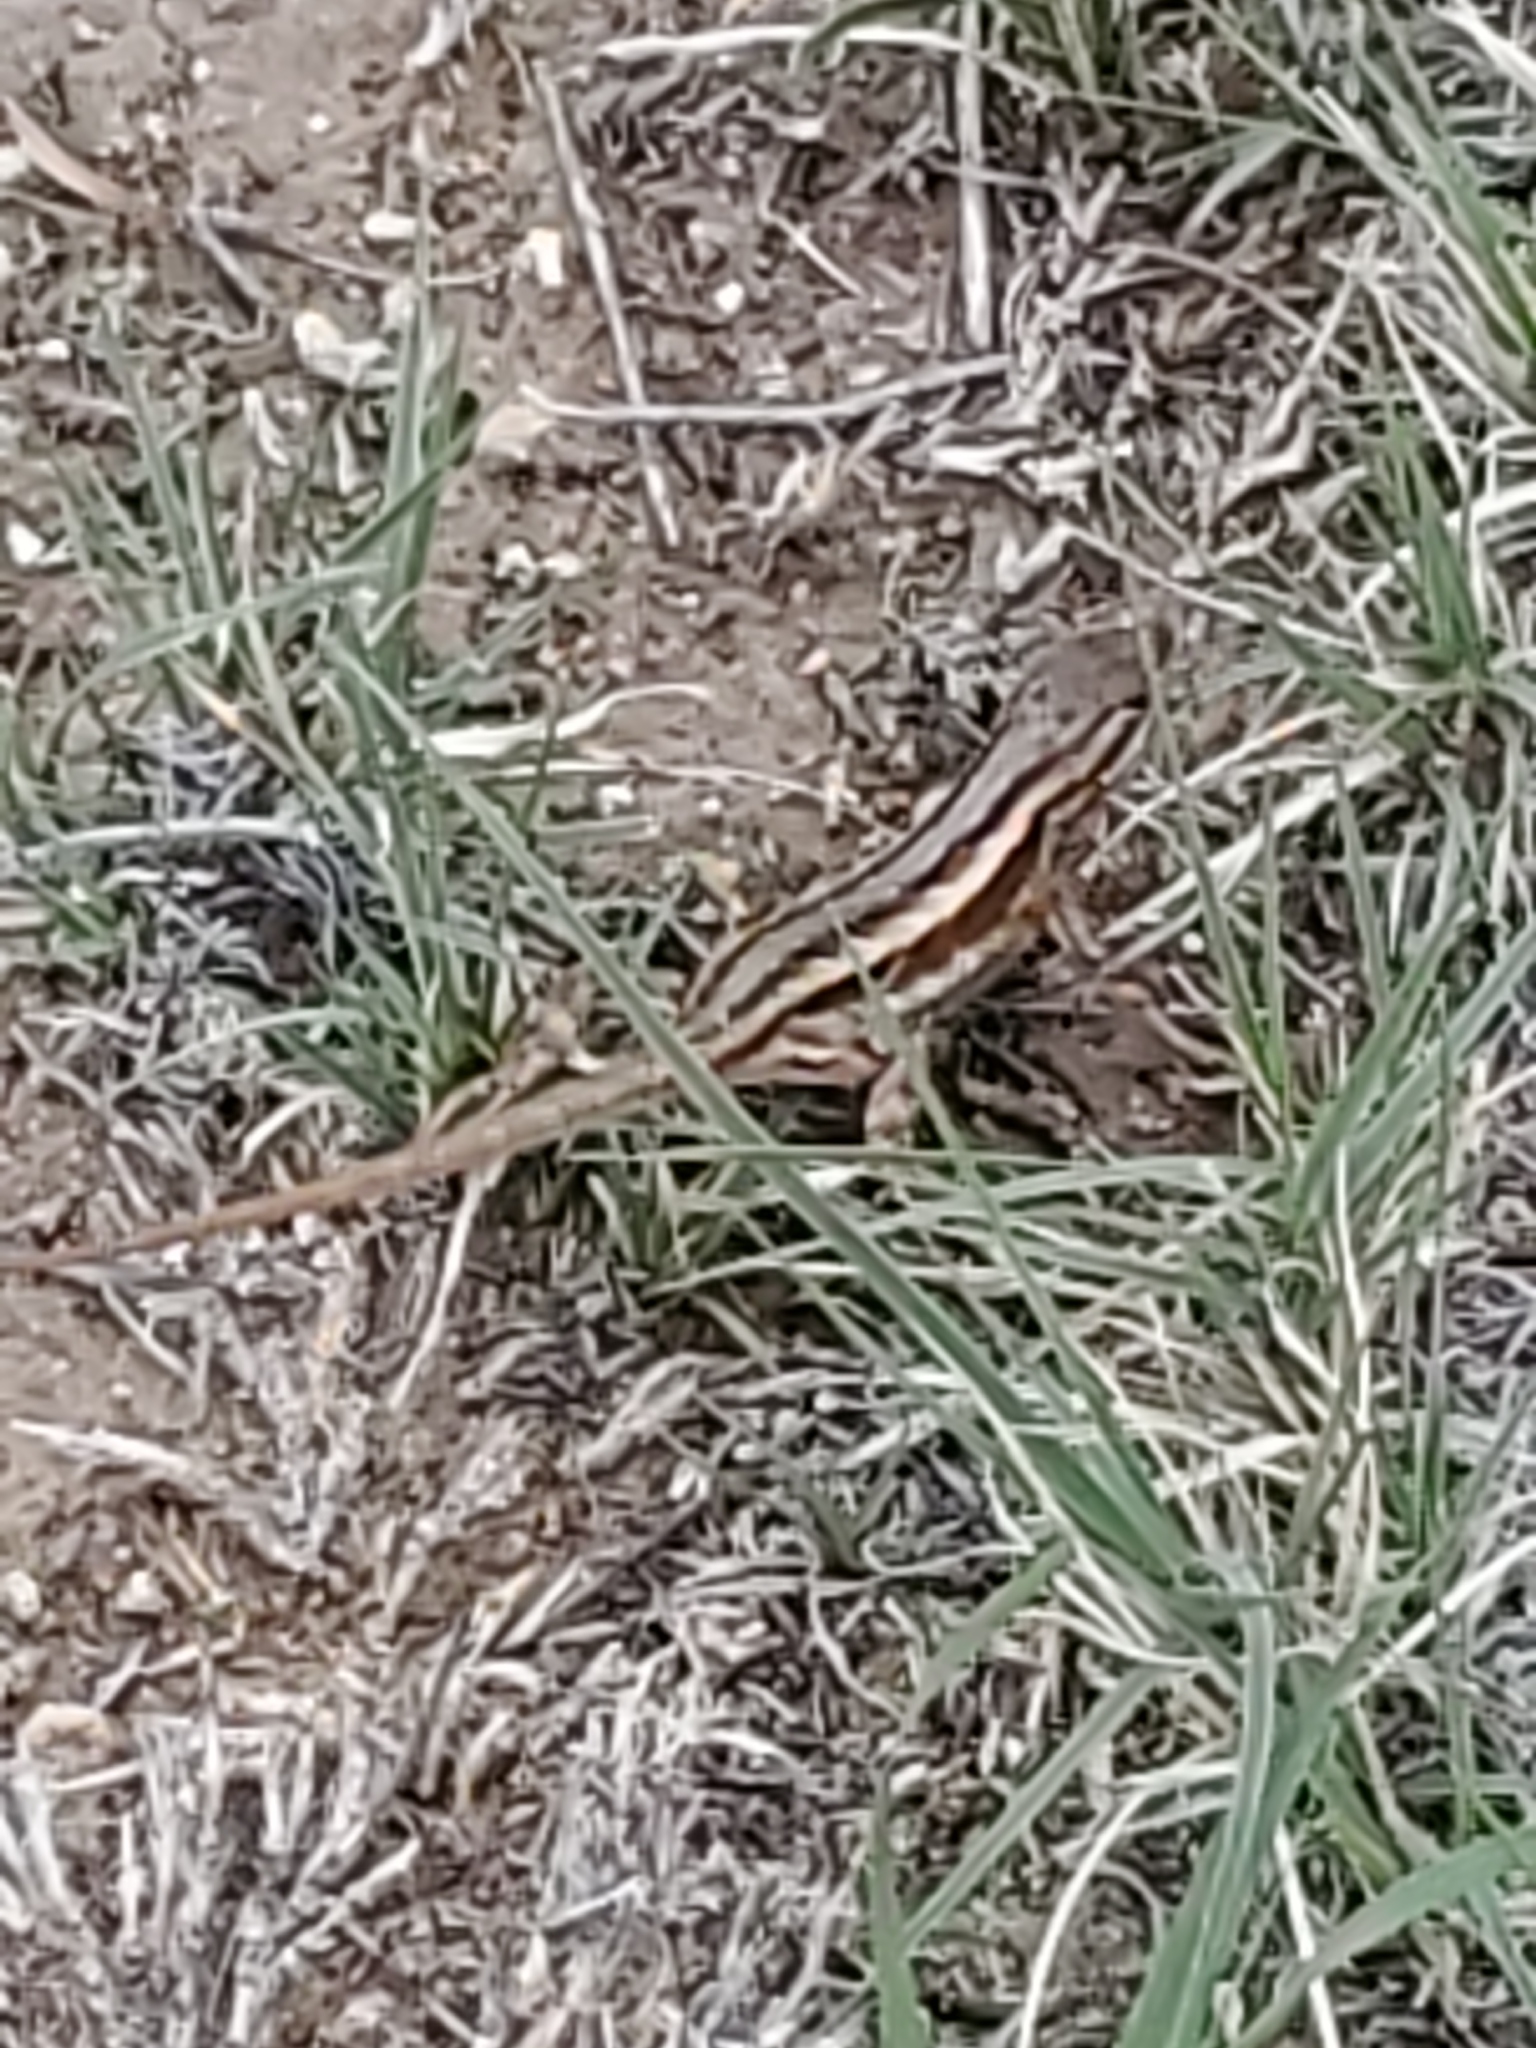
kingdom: Animalia
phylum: Chordata
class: Squamata
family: Phrynosomatidae
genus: Sceloporus
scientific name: Sceloporus consobrinus
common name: Southern prairie lizard
